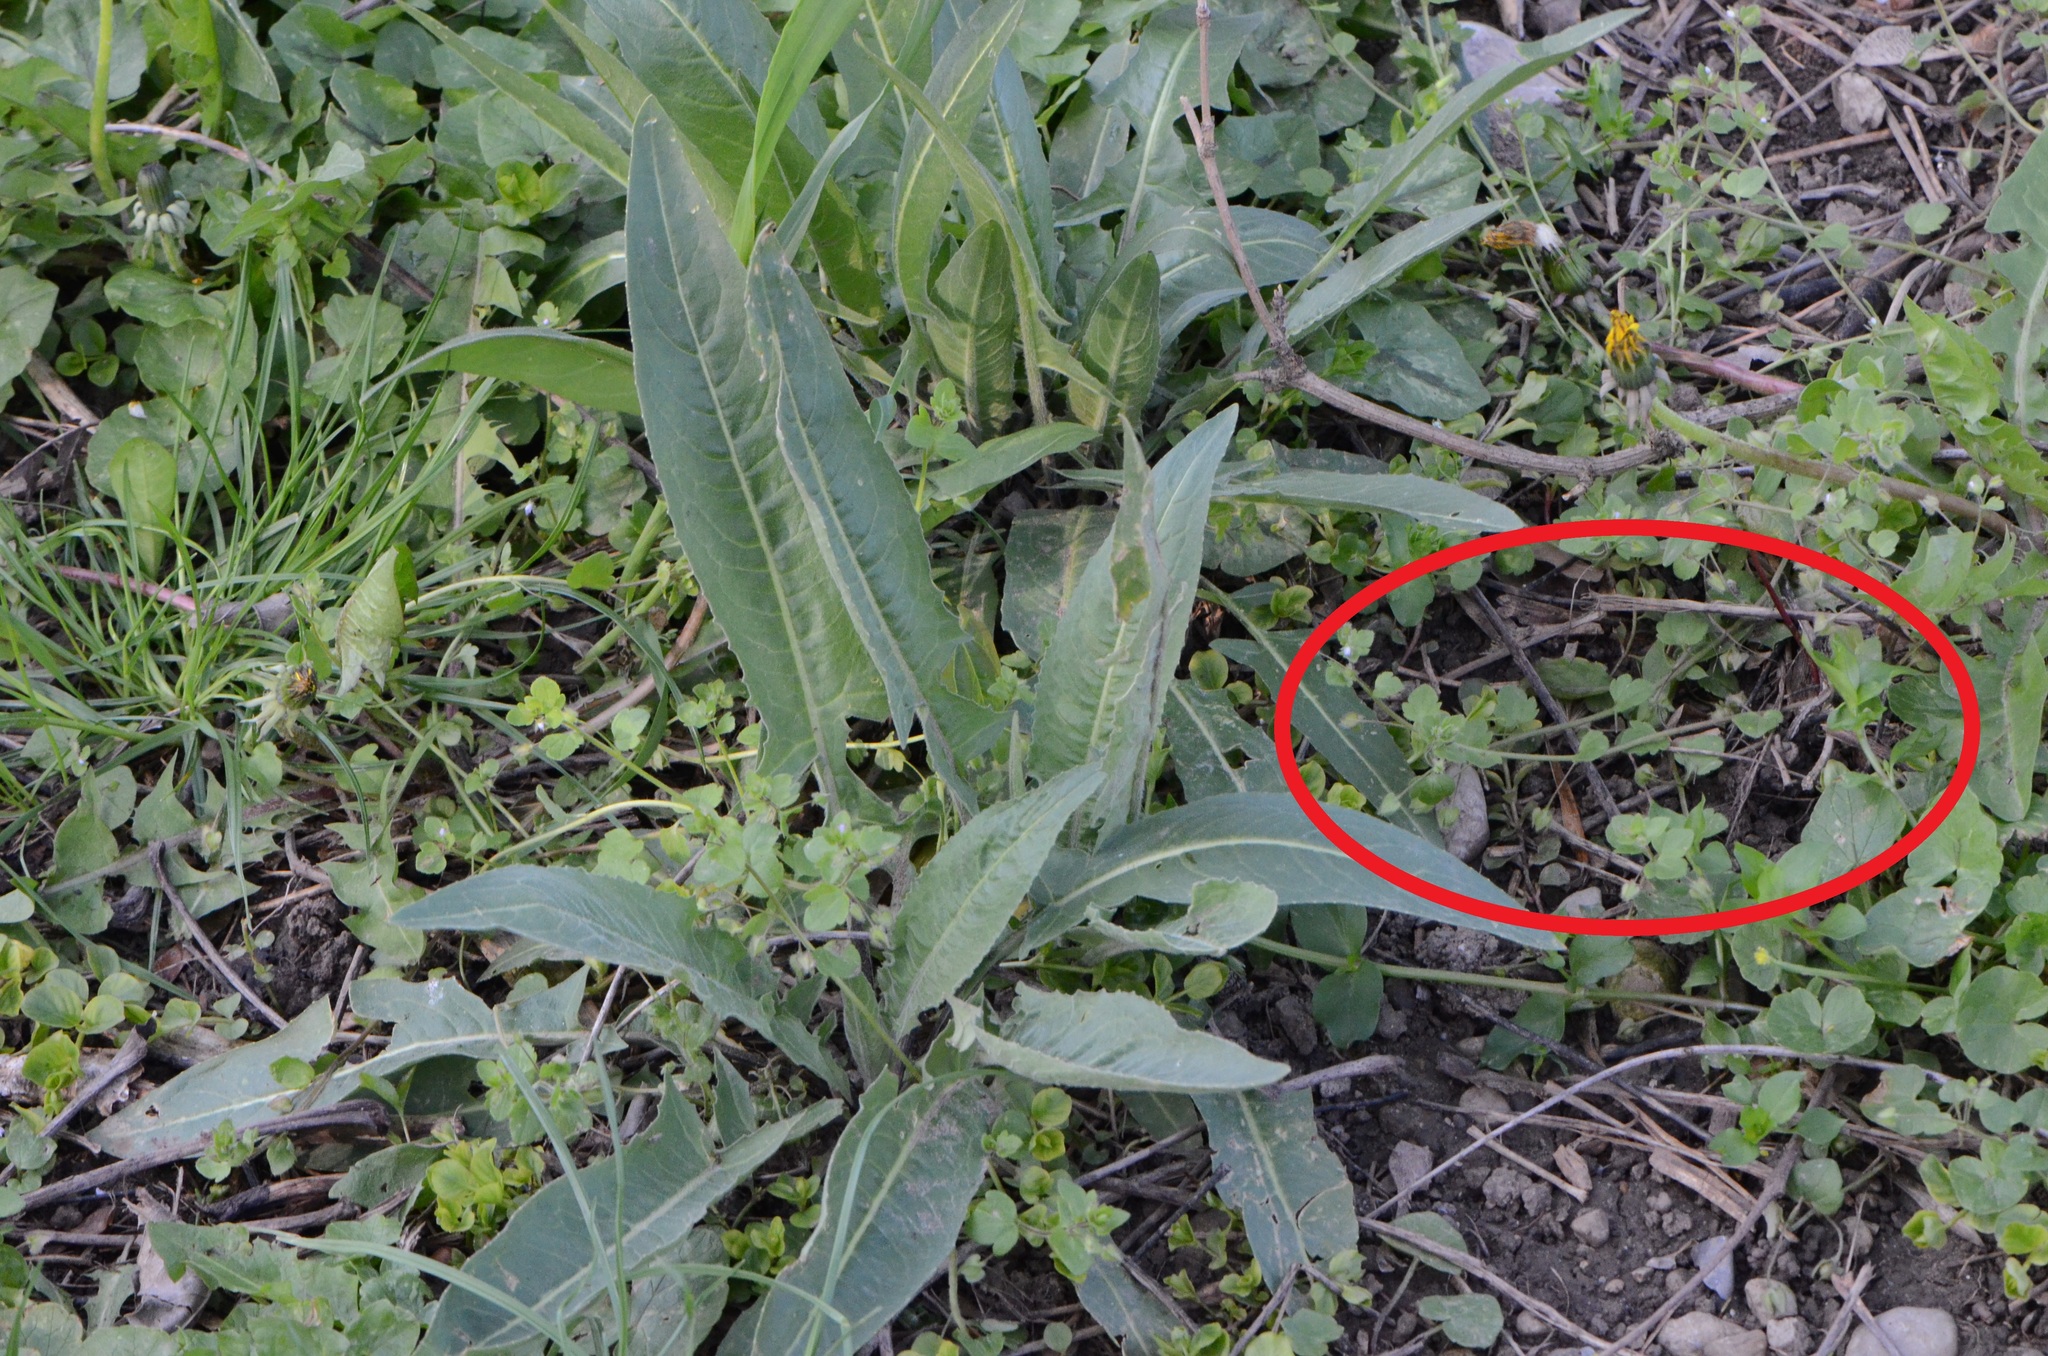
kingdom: Plantae
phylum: Tracheophyta
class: Magnoliopsida
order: Lamiales
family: Plantaginaceae
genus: Veronica
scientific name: Veronica sublobata
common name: False ivy-leaved speedwell
